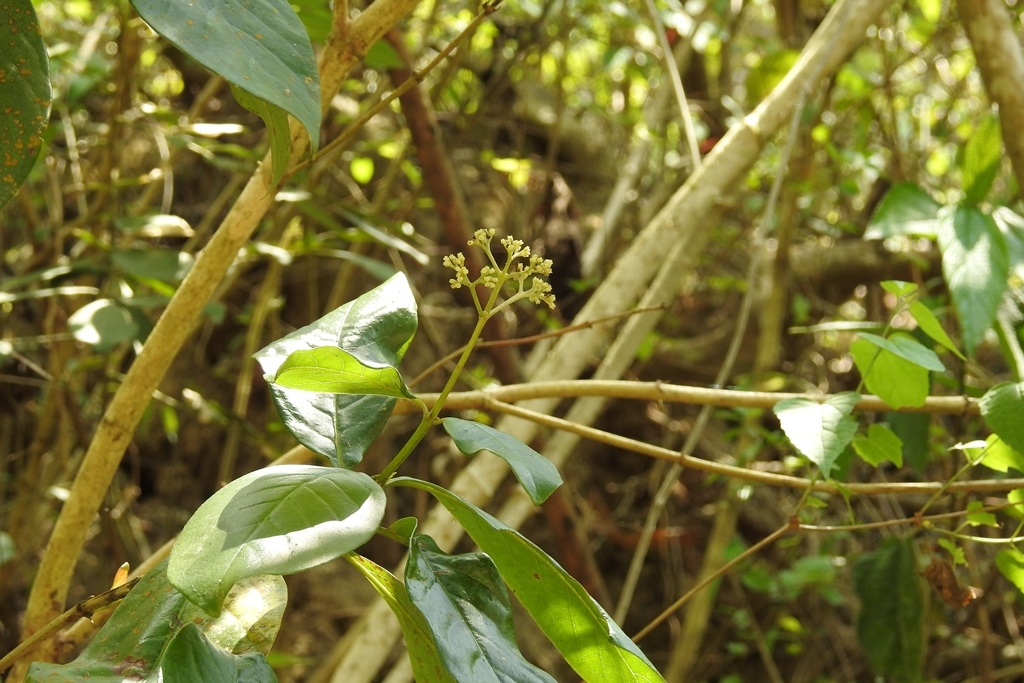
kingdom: Plantae
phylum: Tracheophyta
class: Magnoliopsida
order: Gentianales
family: Rubiaceae
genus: Rogiera
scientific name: Rogiera stenosiphon
